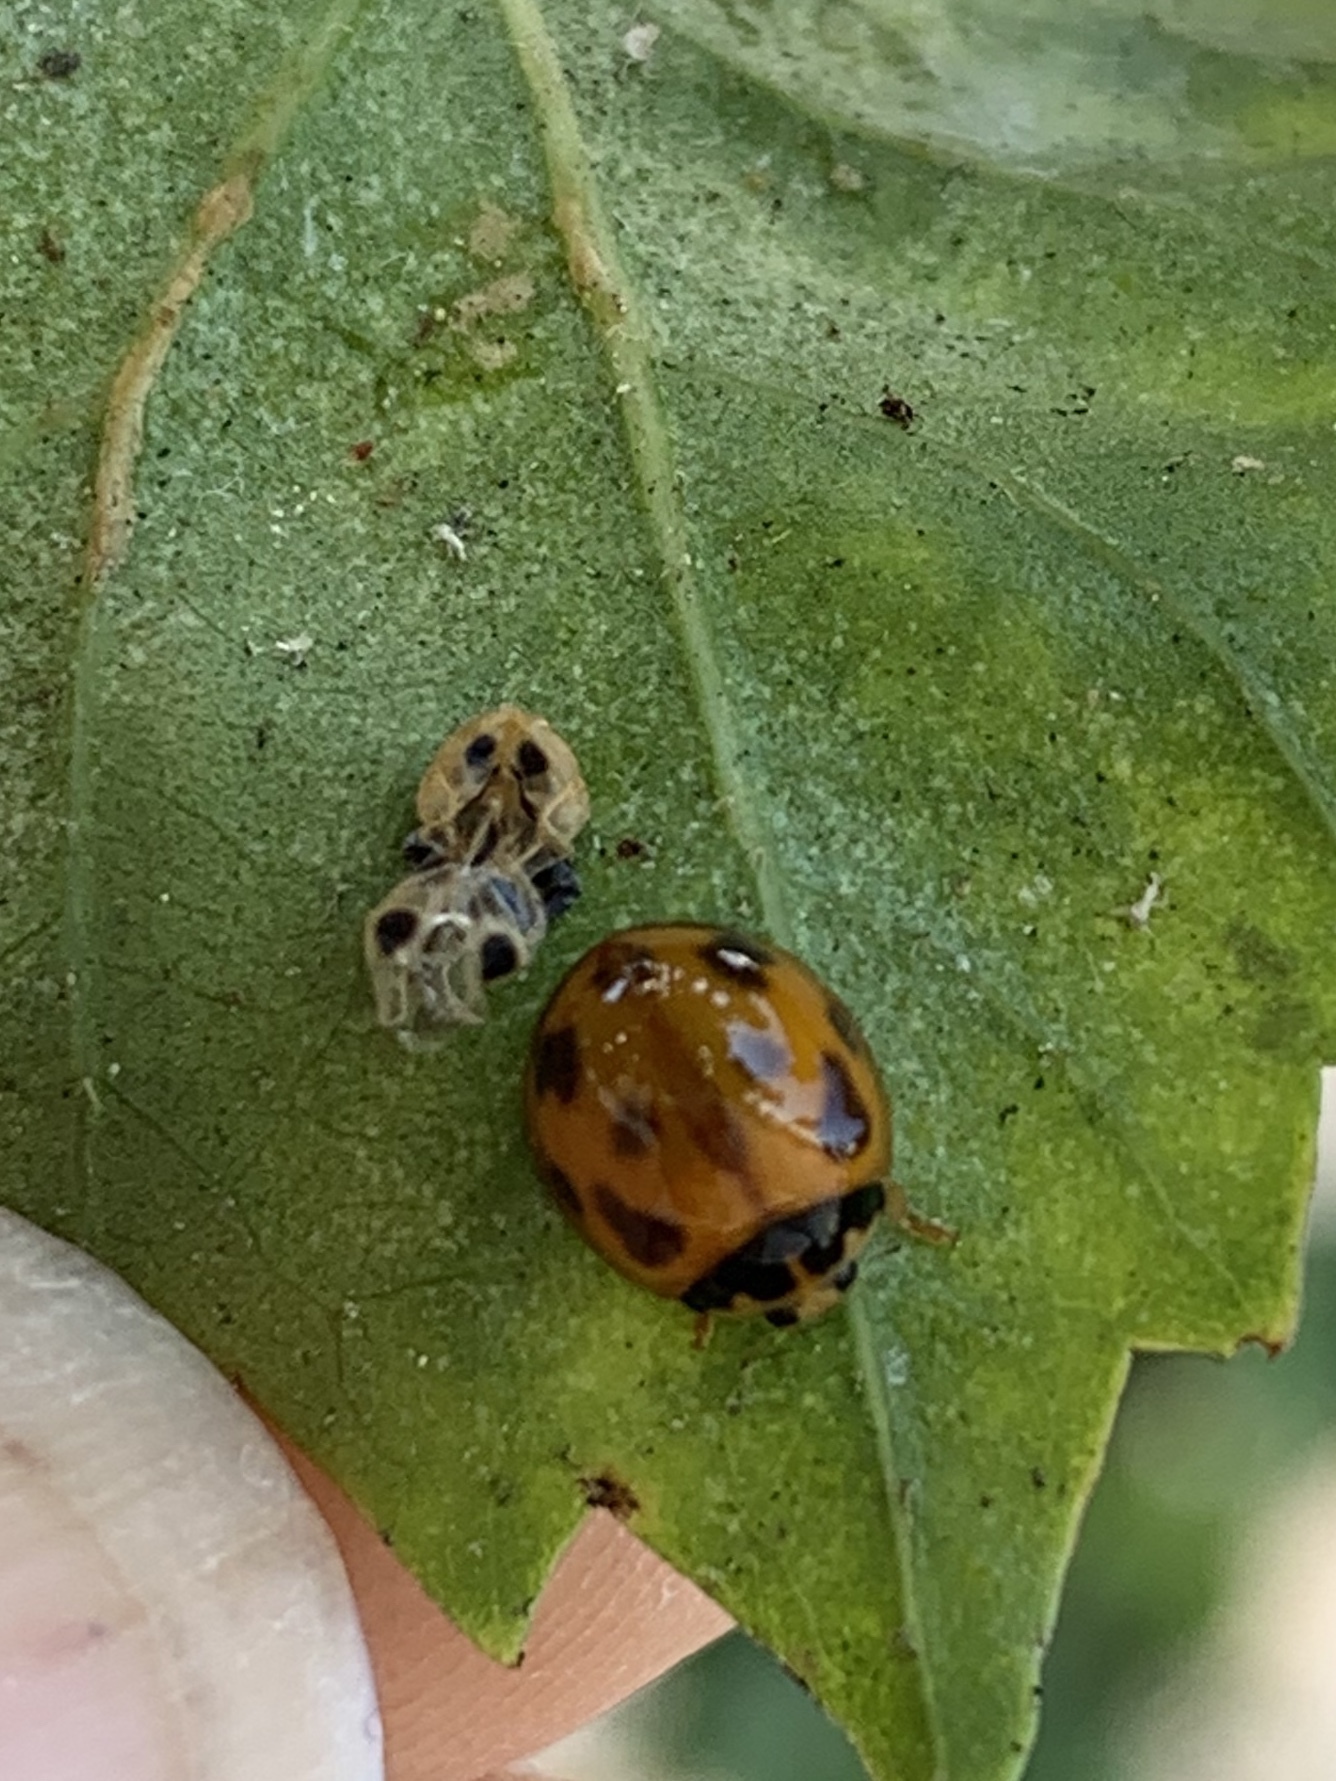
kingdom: Animalia
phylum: Arthropoda
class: Insecta
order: Coleoptera
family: Coccinellidae
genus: Coelophora
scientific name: Coelophora inaequalis
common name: Common australian lady beetle
